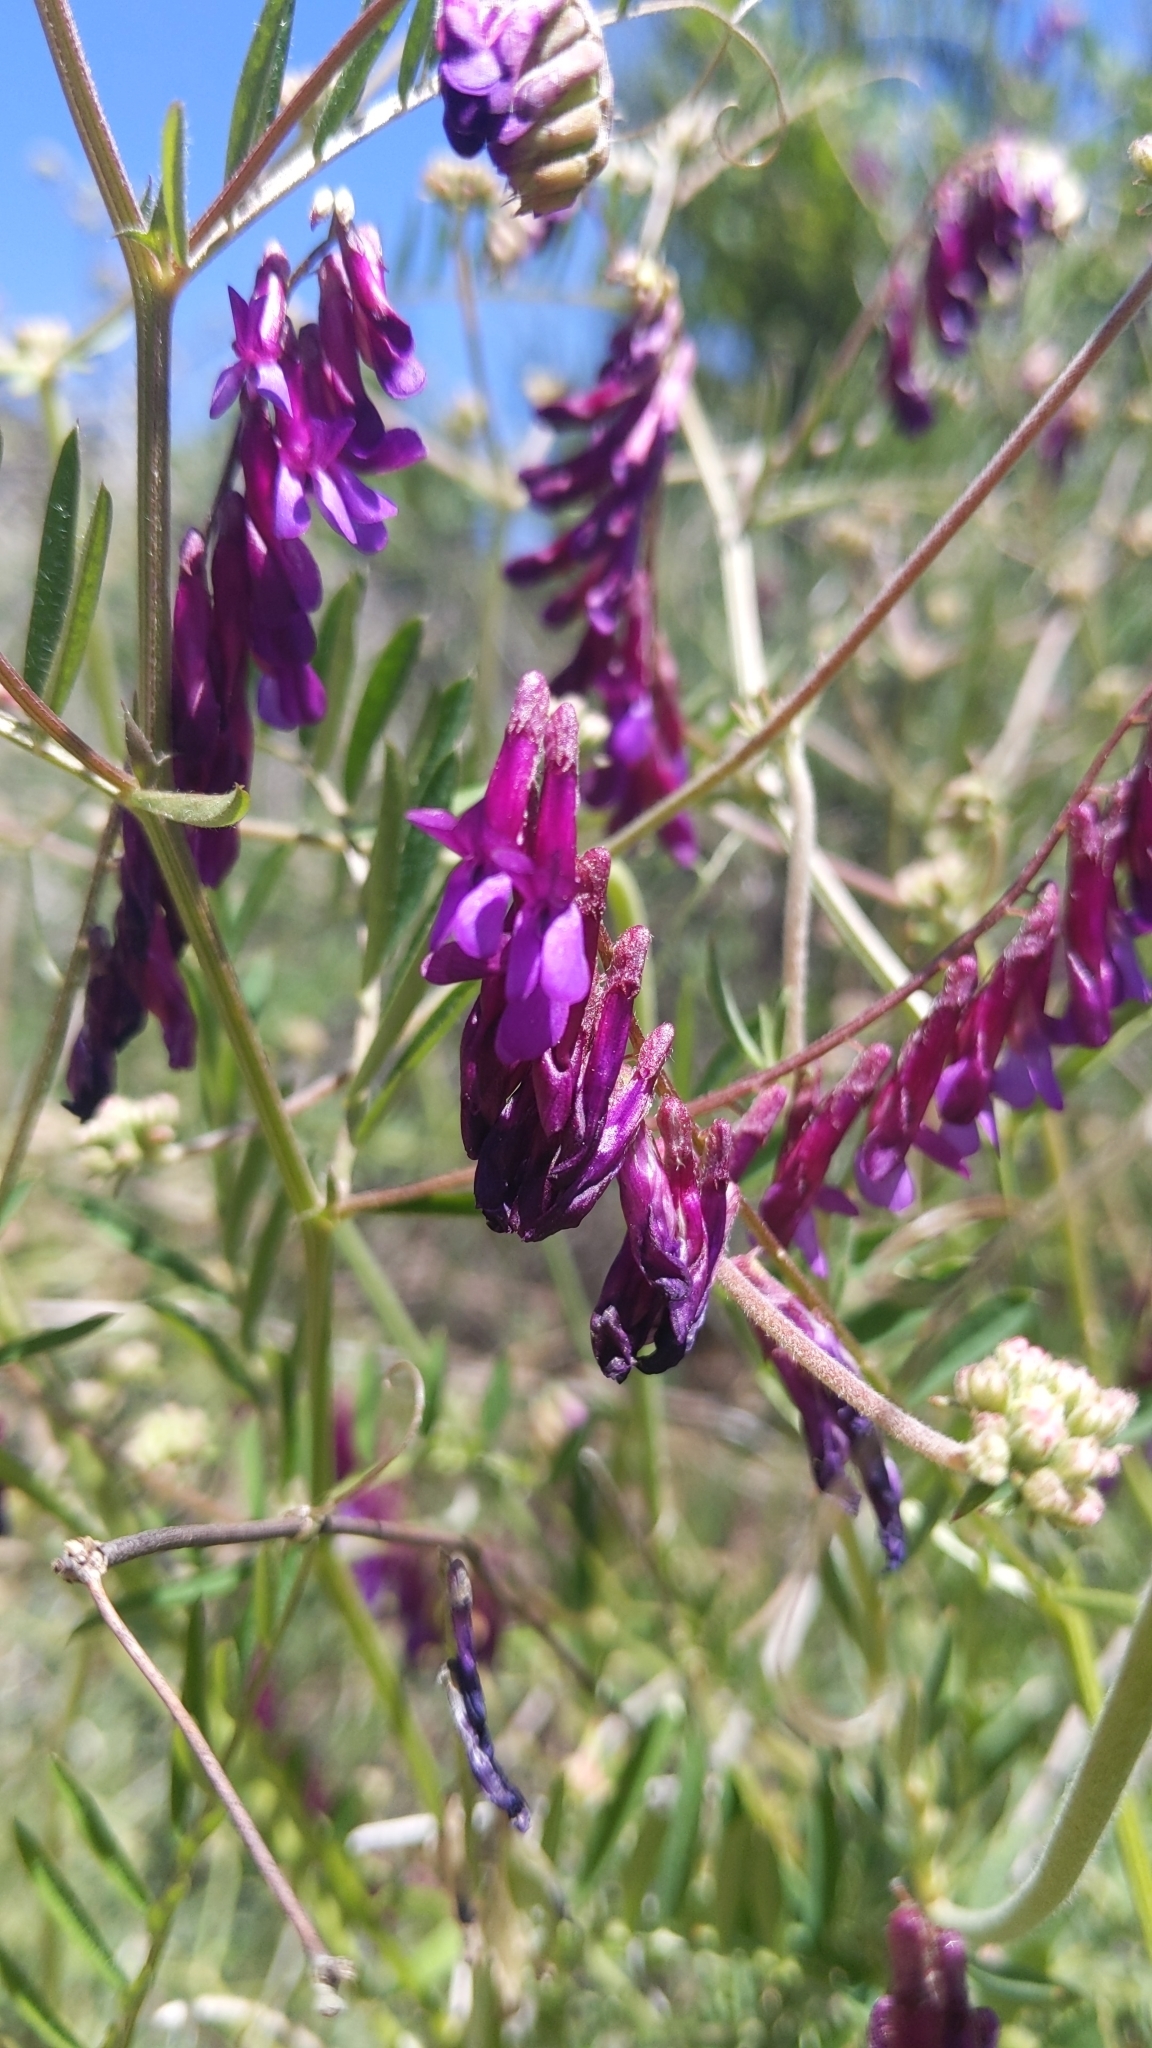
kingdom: Plantae
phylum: Tracheophyta
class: Magnoliopsida
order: Fabales
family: Fabaceae
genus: Vicia
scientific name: Vicia villosa
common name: Fodder vetch
